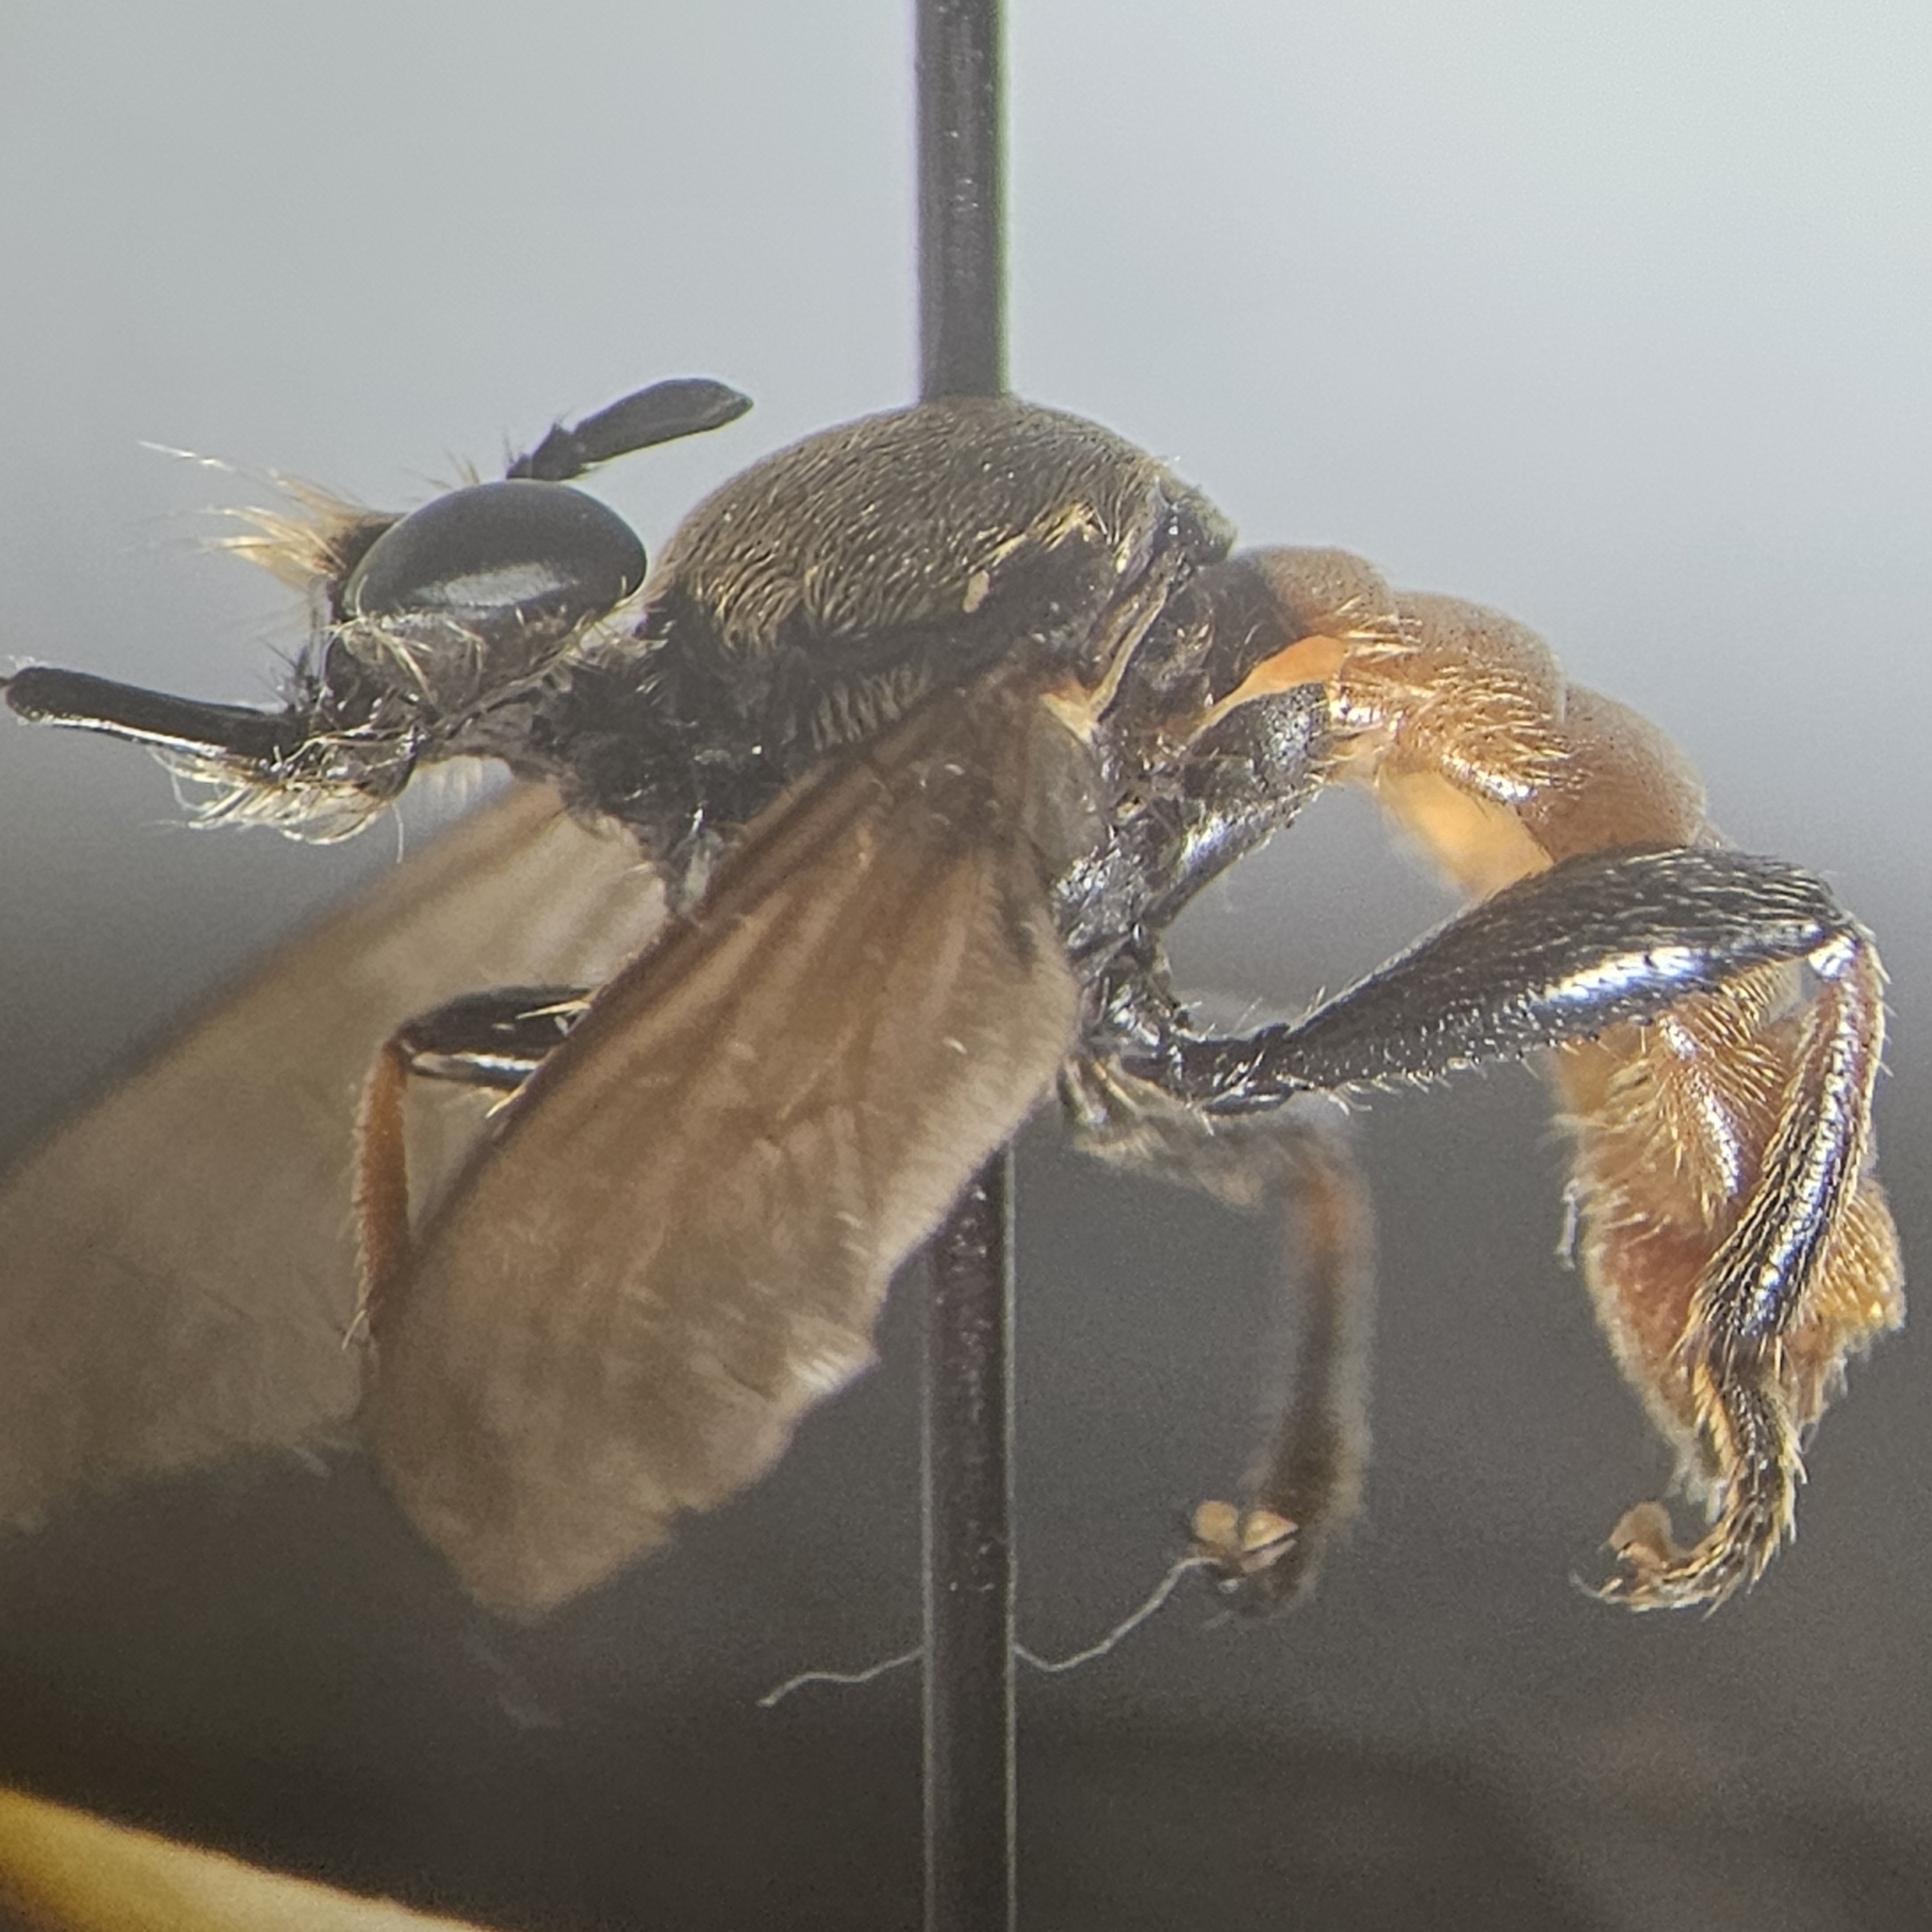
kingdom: Animalia
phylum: Arthropoda
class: Insecta
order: Diptera
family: Asilidae
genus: Lampria
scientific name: Lampria rubriventris
